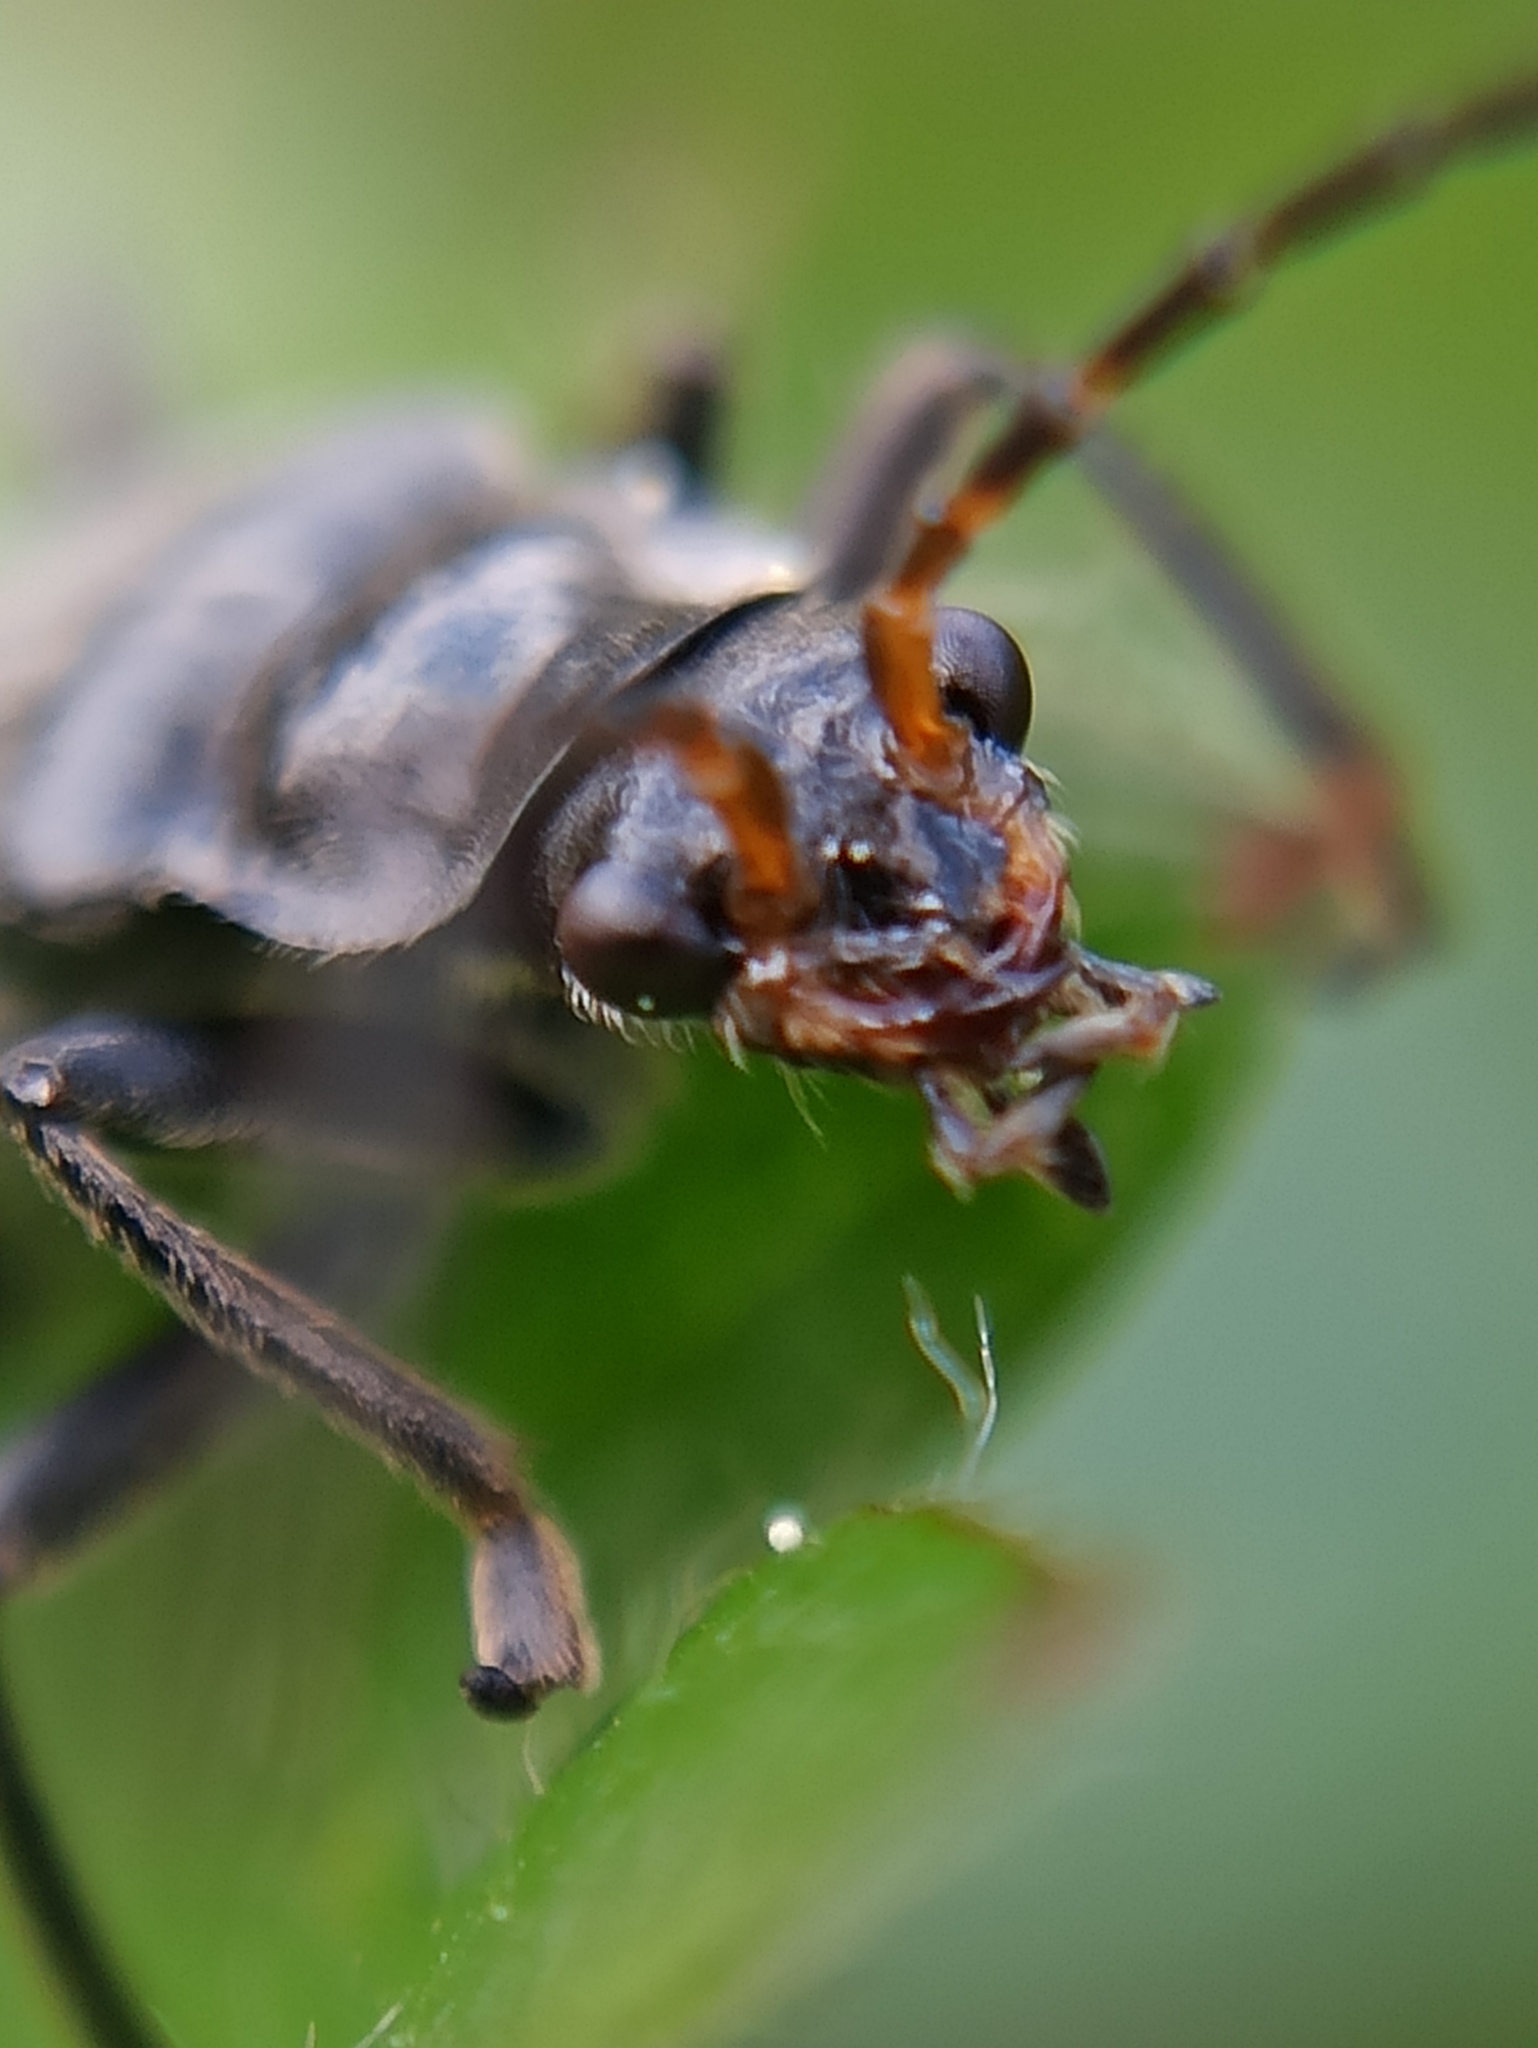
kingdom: Animalia
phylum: Arthropoda
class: Insecta
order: Coleoptera
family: Cantharidae
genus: Cantharis
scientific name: Cantharis tristis
